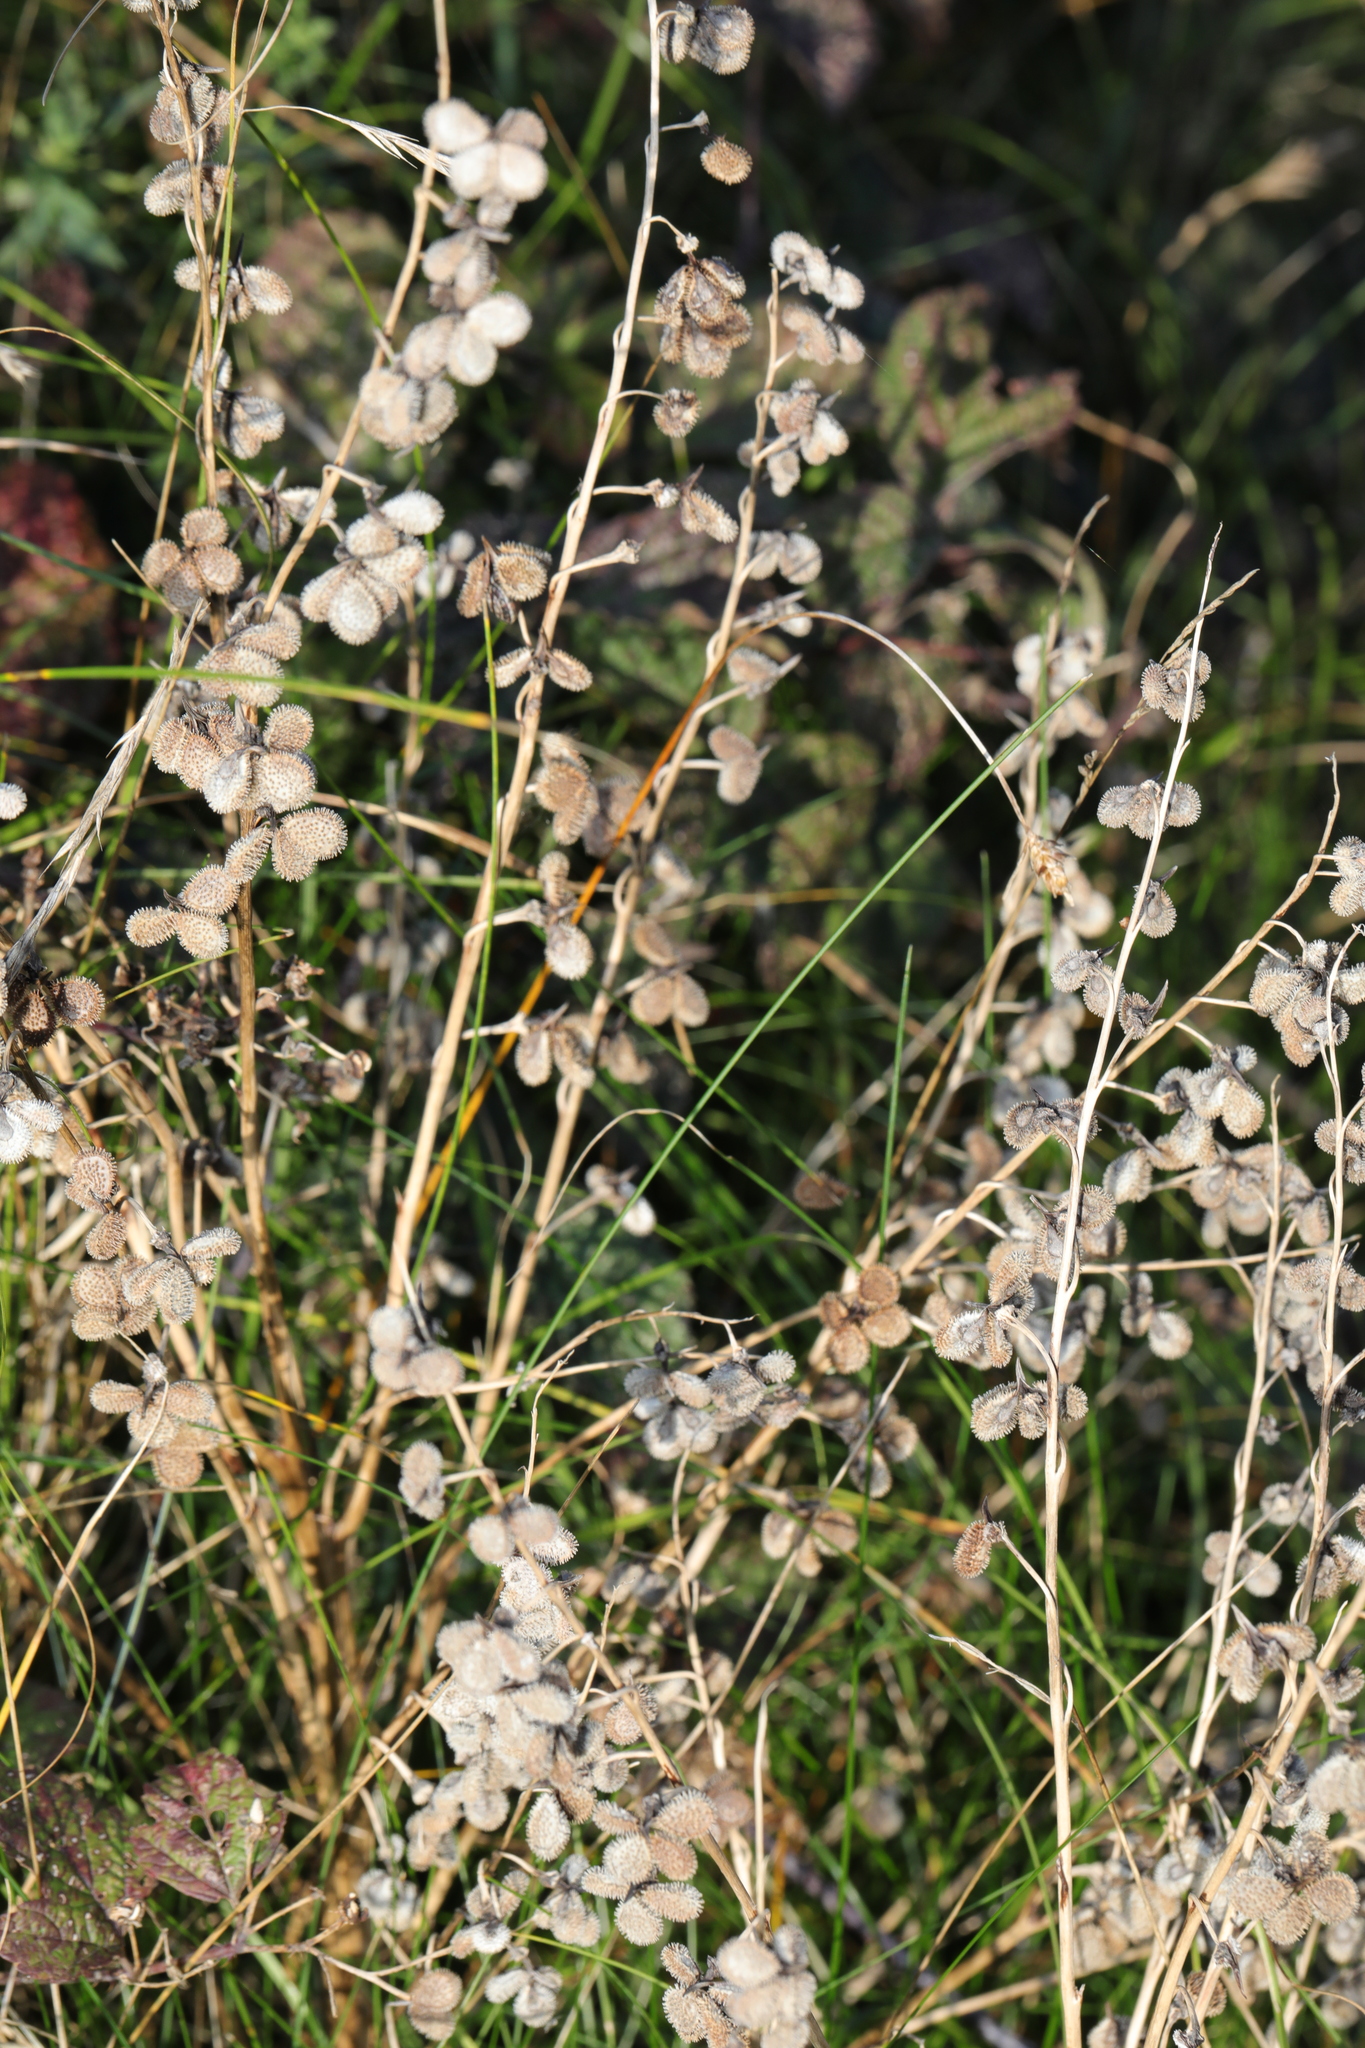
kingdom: Plantae
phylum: Tracheophyta
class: Magnoliopsida
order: Boraginales
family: Boraginaceae
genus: Cynoglossum
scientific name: Cynoglossum officinale
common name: Hound's-tongue
